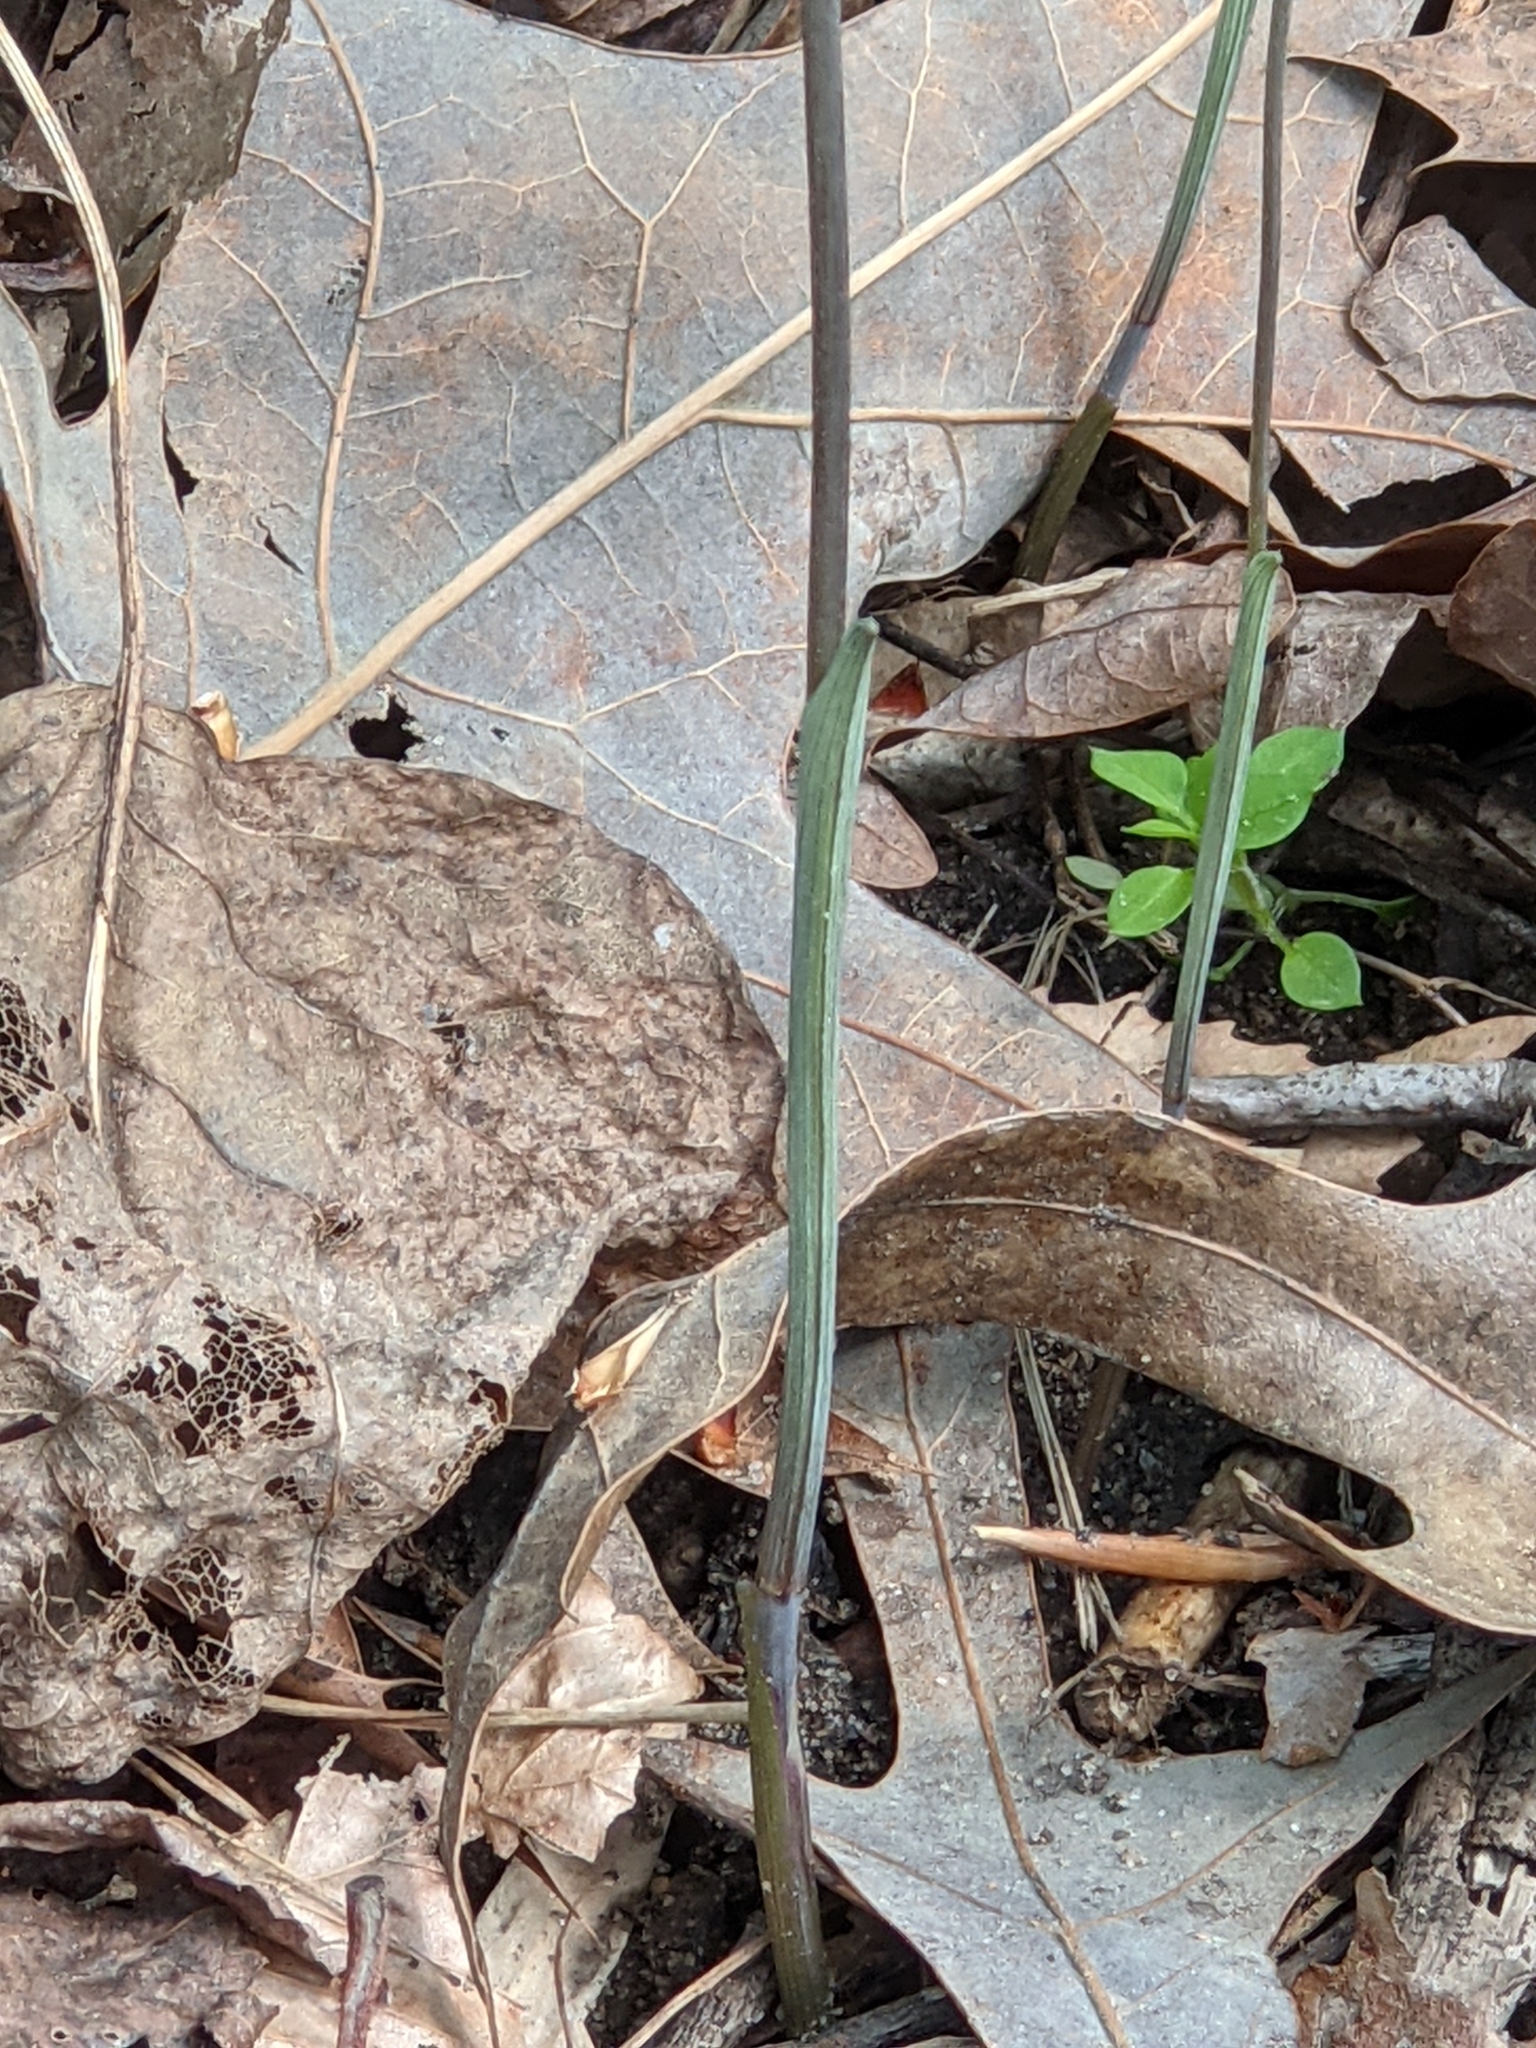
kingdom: Plantae
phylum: Tracheophyta
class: Liliopsida
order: Liliales
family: Colchicaceae
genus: Uvularia
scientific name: Uvularia perfoliata
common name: Perfoliate bellwort
